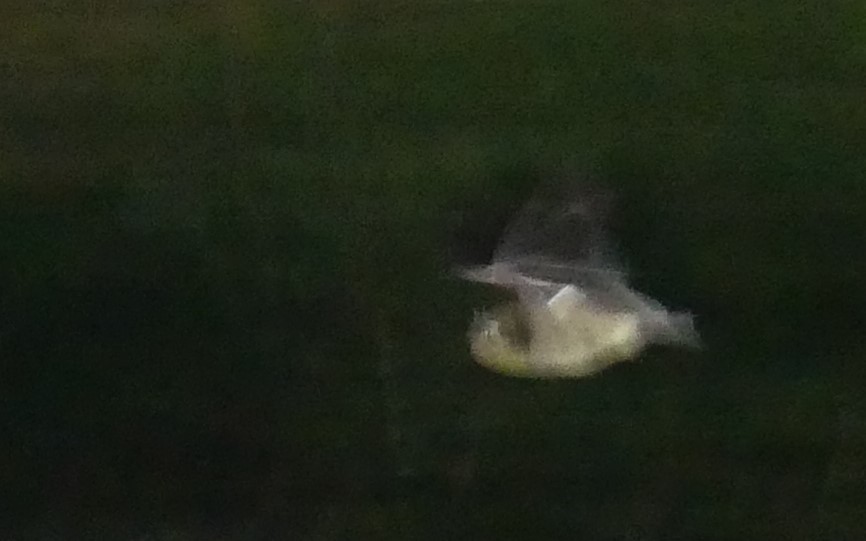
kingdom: Animalia
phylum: Chordata
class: Mammalia
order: Chiroptera
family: Vespertilionidae
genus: Myotis
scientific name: Myotis macropus
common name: Gould's large-footed myotis
